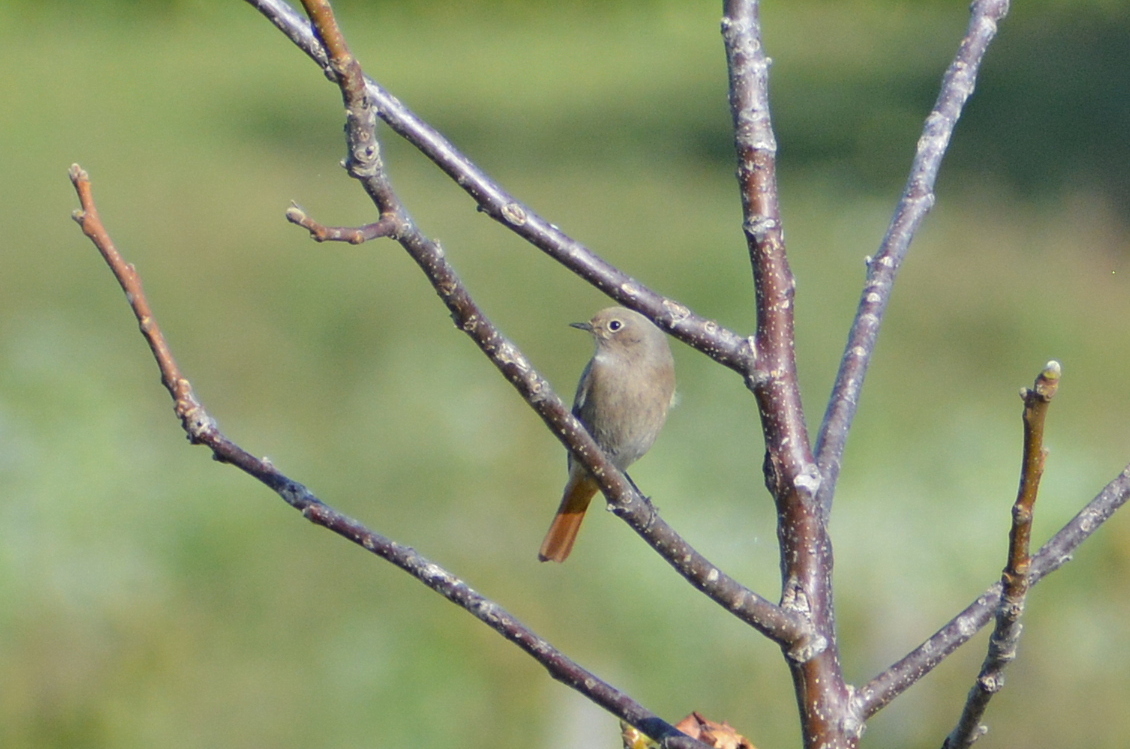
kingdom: Animalia
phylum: Chordata
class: Aves
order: Passeriformes
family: Muscicapidae
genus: Phoenicurus
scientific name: Phoenicurus ochruros
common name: Black redstart
